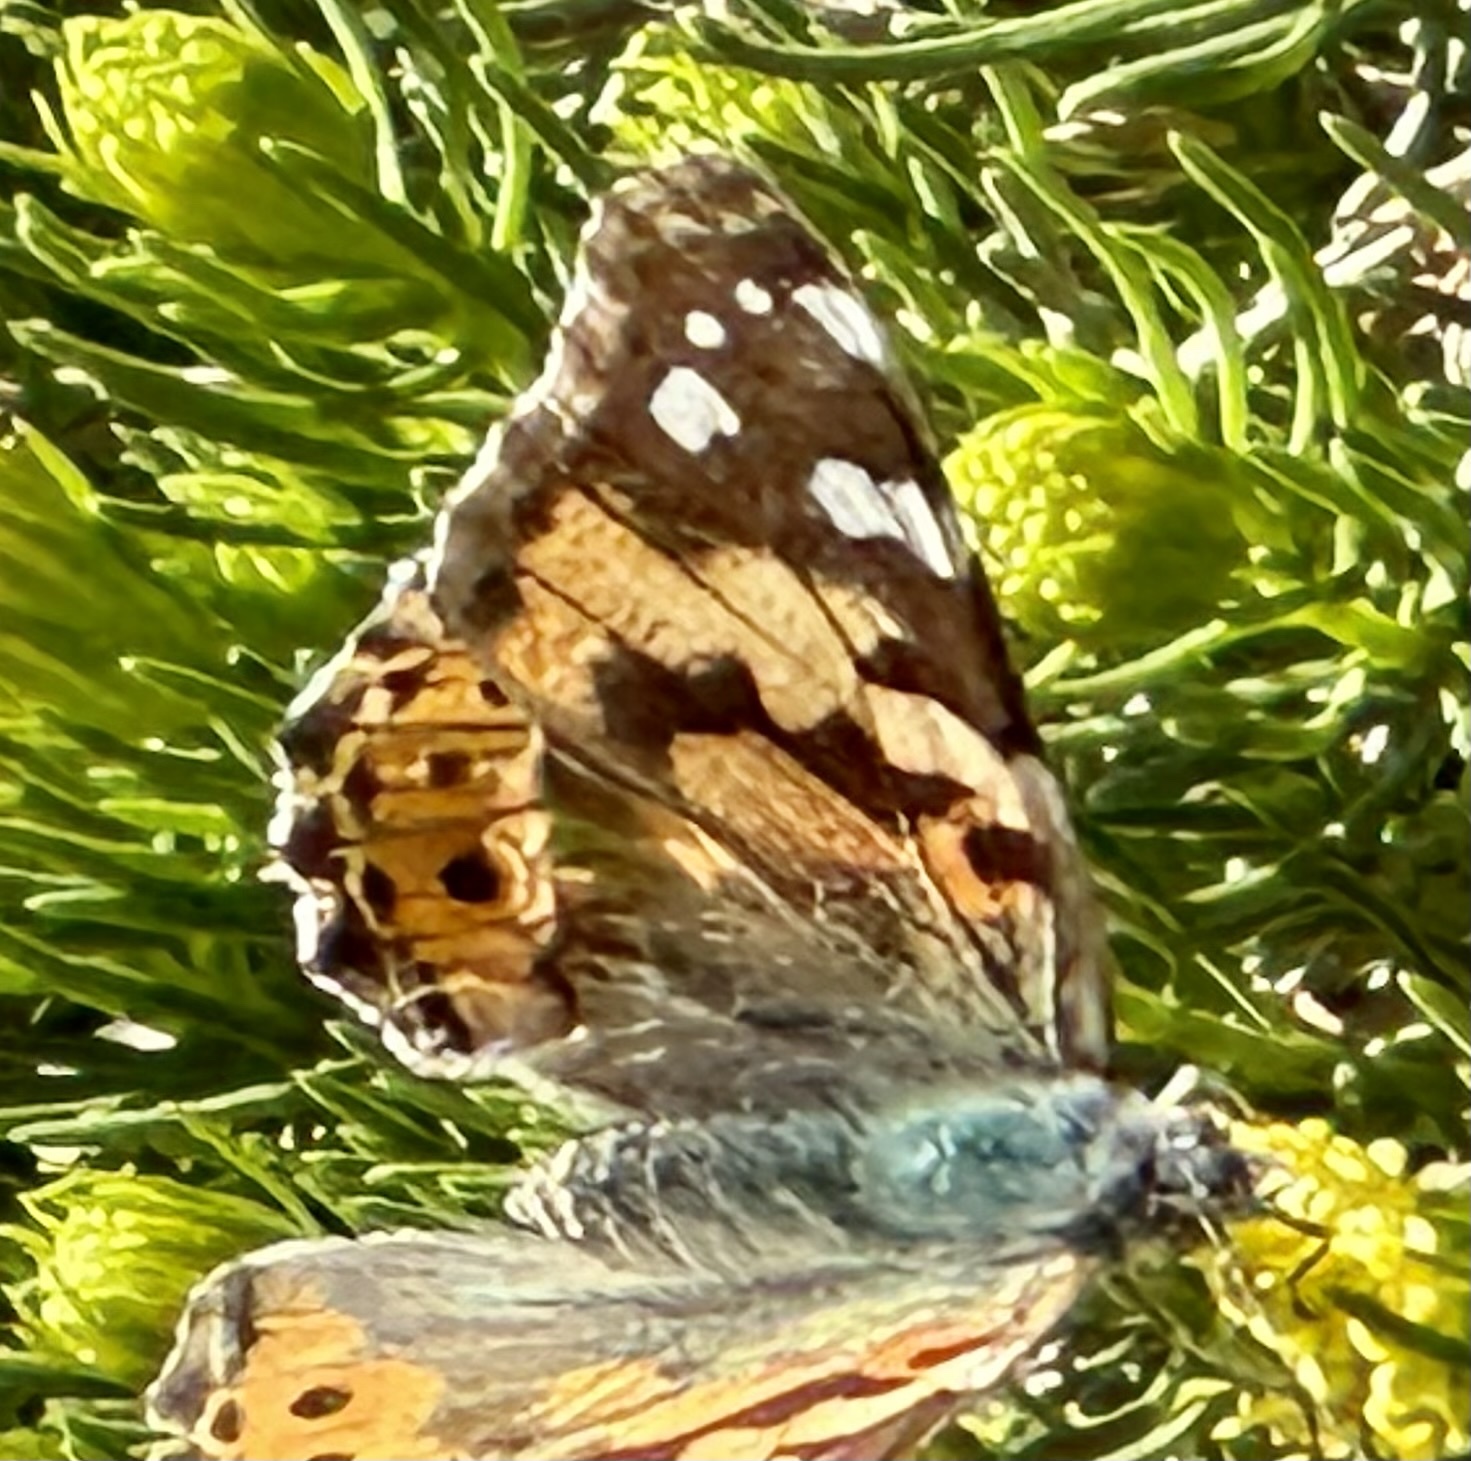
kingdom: Animalia
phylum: Arthropoda
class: Insecta
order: Lepidoptera
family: Nymphalidae
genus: Vanessa
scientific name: Vanessa cardui
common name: Painted lady
